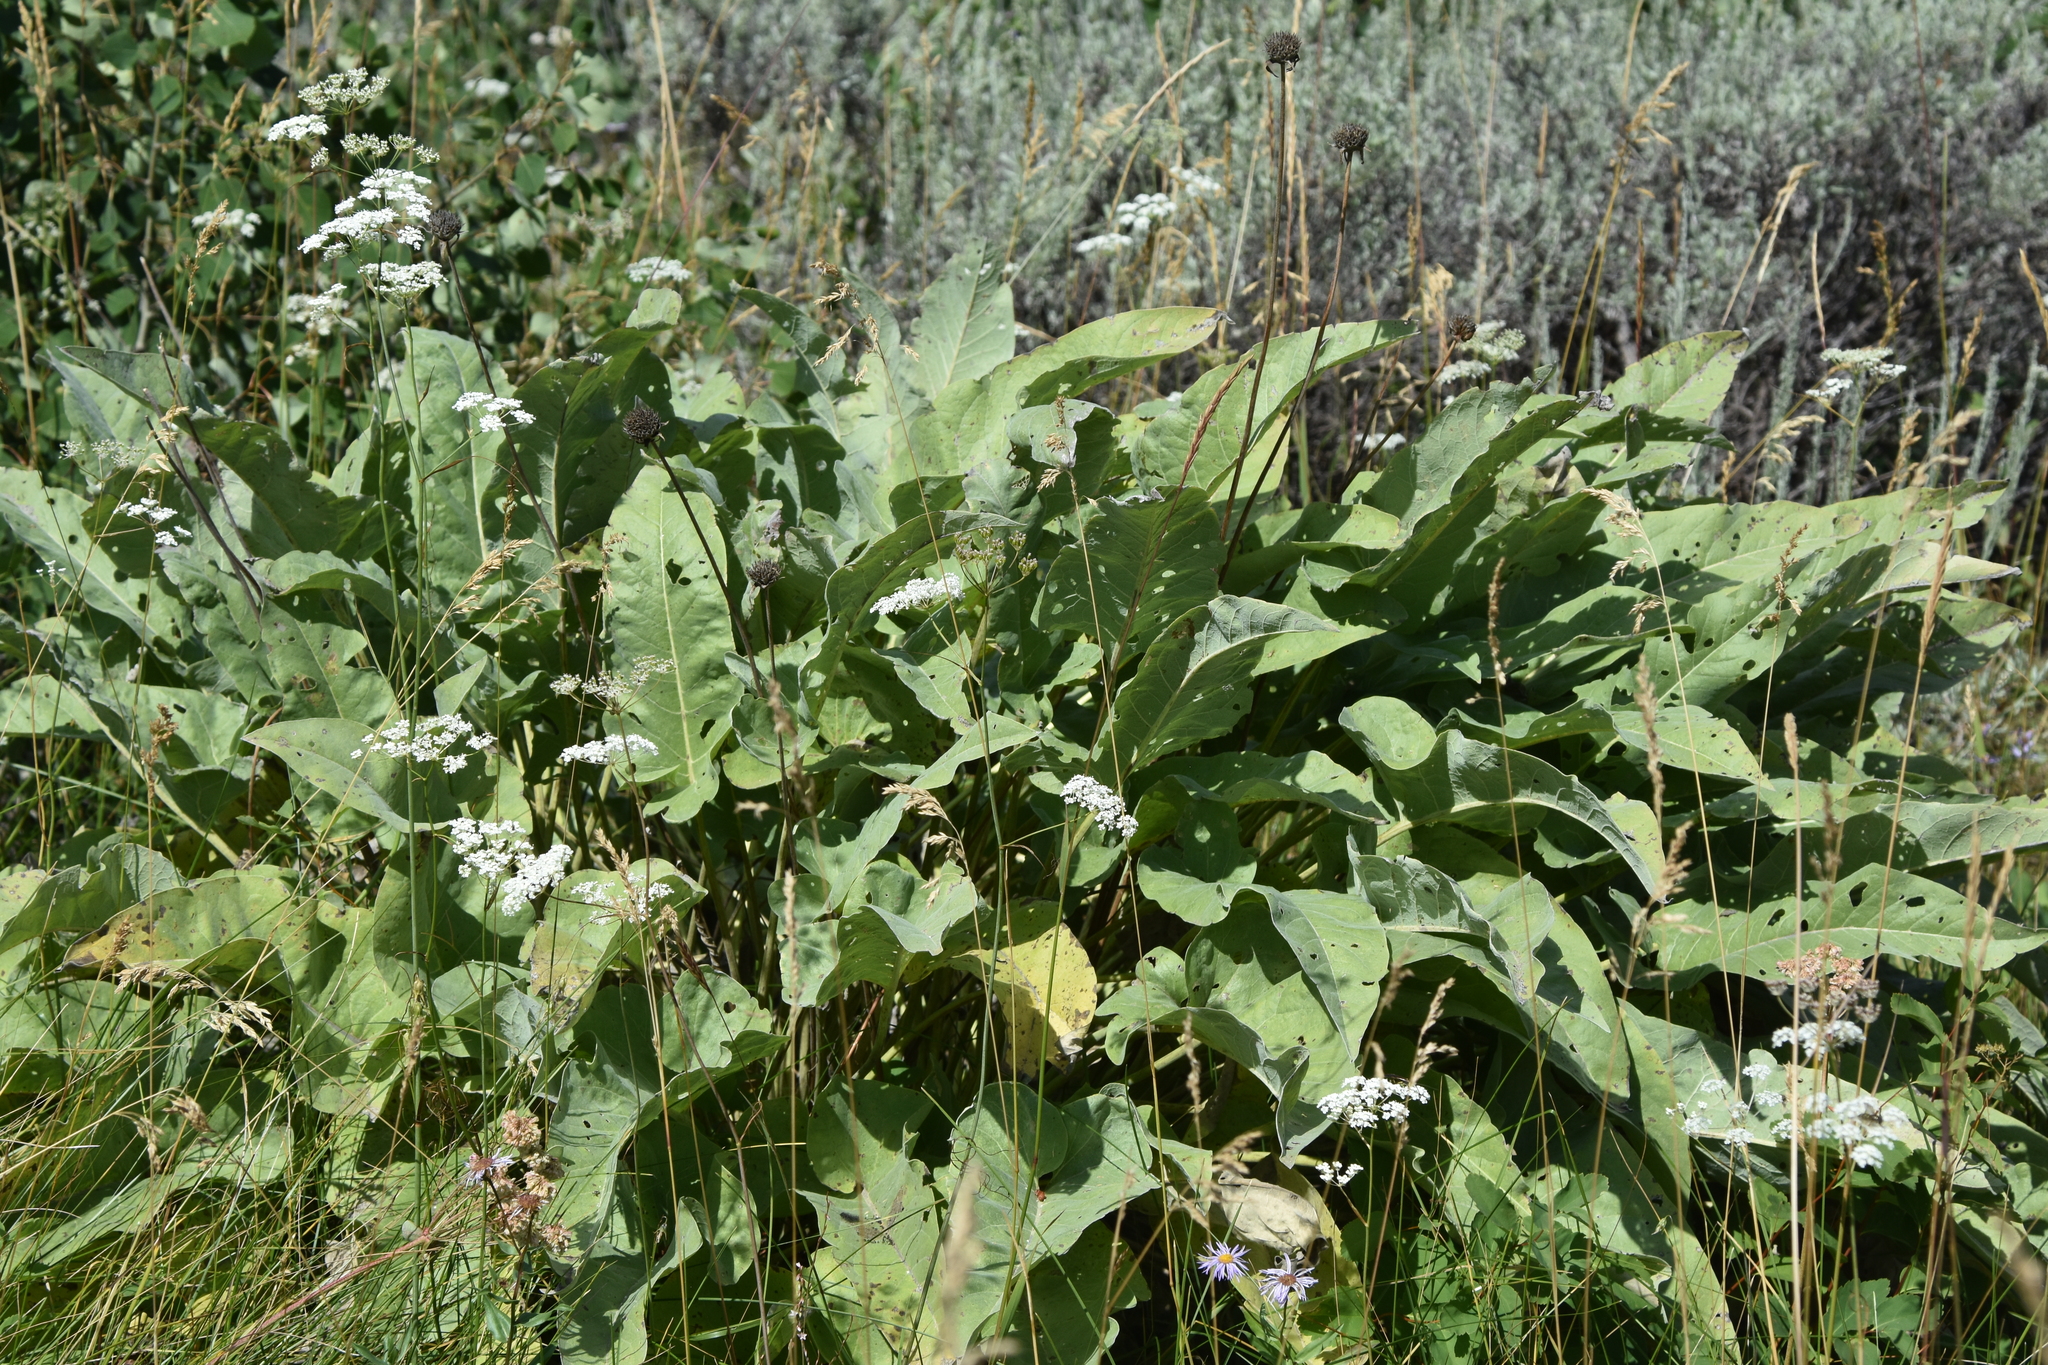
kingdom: Plantae
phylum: Tracheophyta
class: Magnoliopsida
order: Asterales
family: Asteraceae
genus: Wyethia
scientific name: Wyethia sagittata
